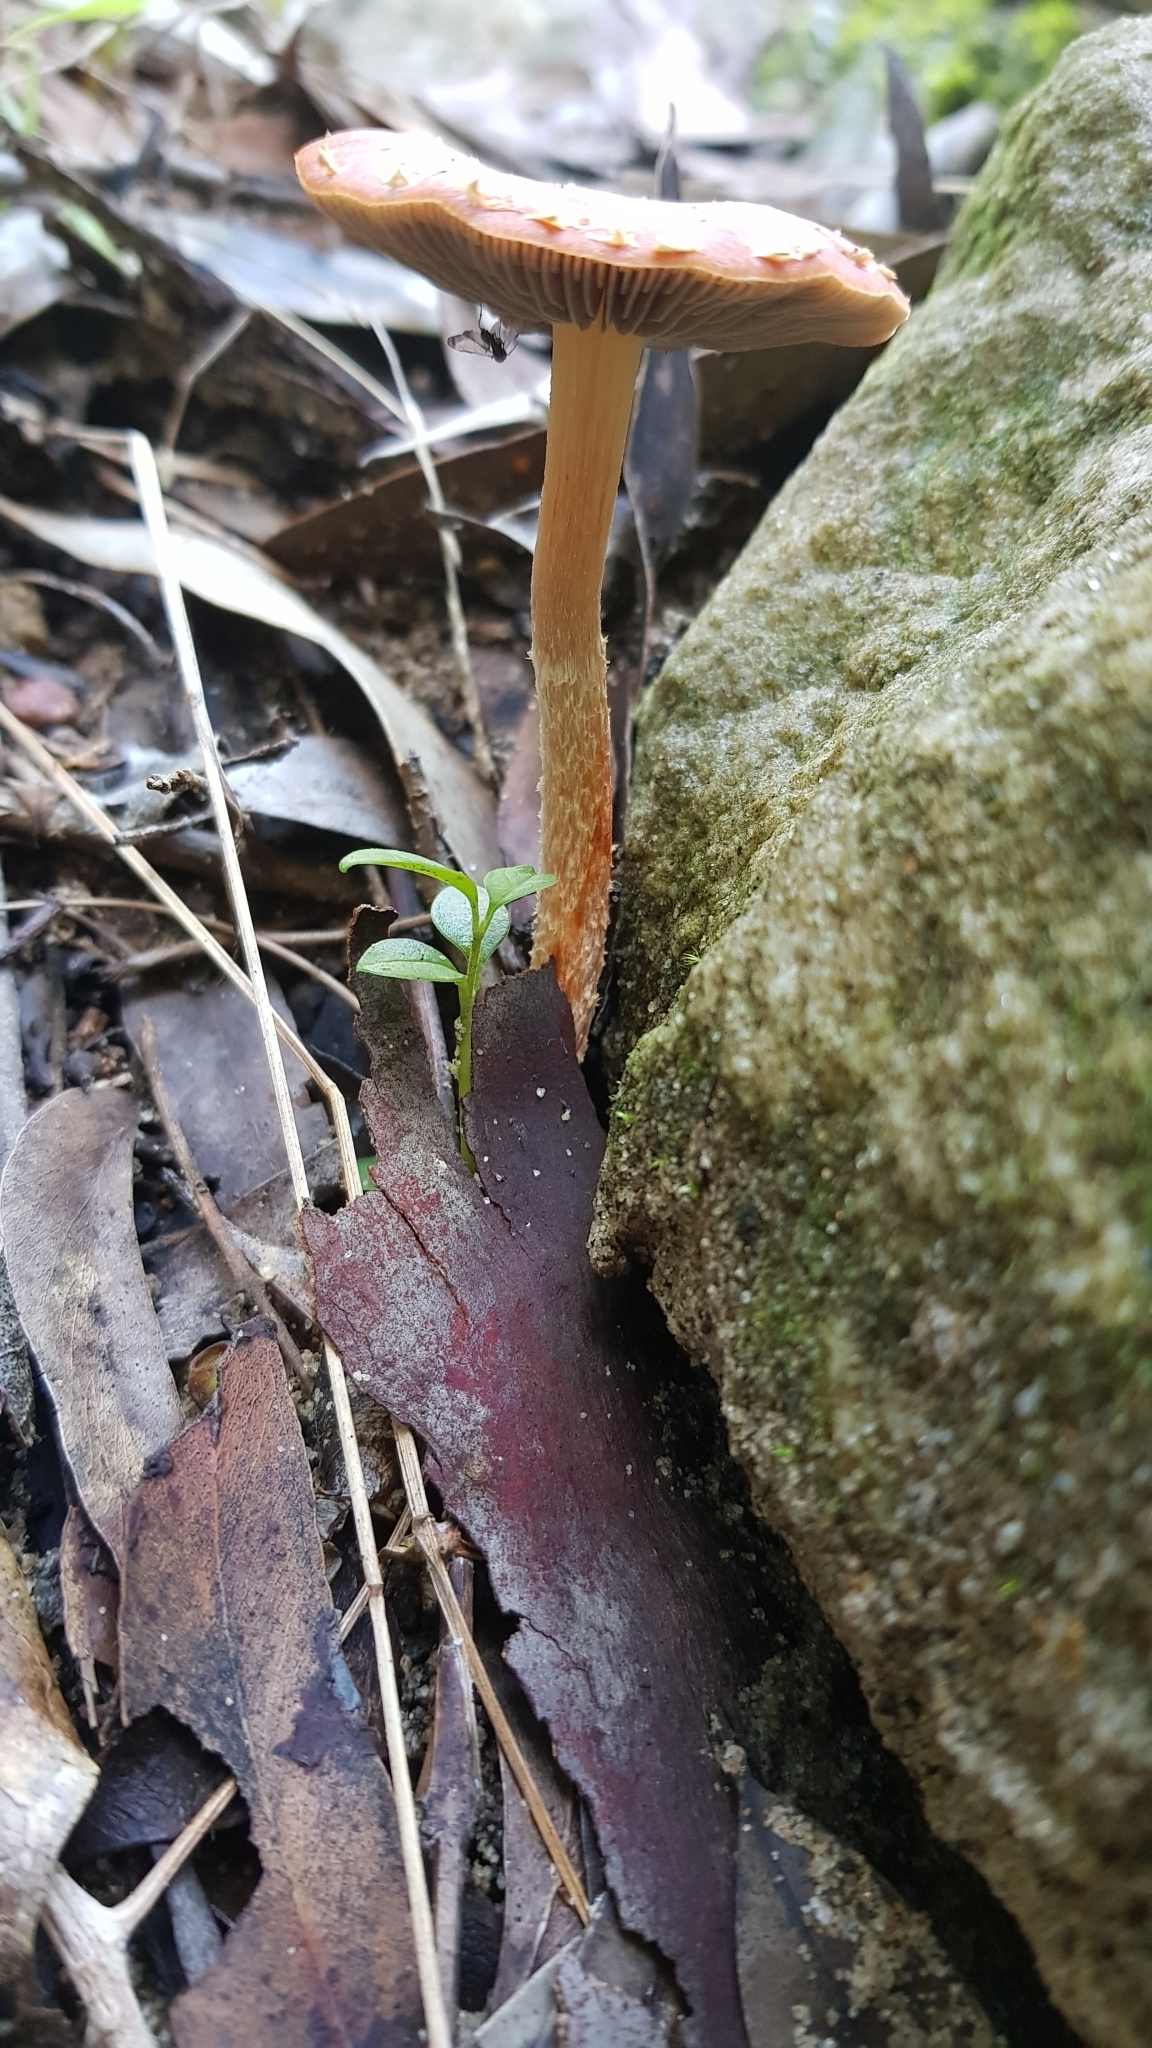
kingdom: Fungi
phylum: Basidiomycota
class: Agaricomycetes
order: Agaricales
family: Strophariaceae
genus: Leratiomyces
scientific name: Leratiomyces ceres
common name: Redlead roundhead
